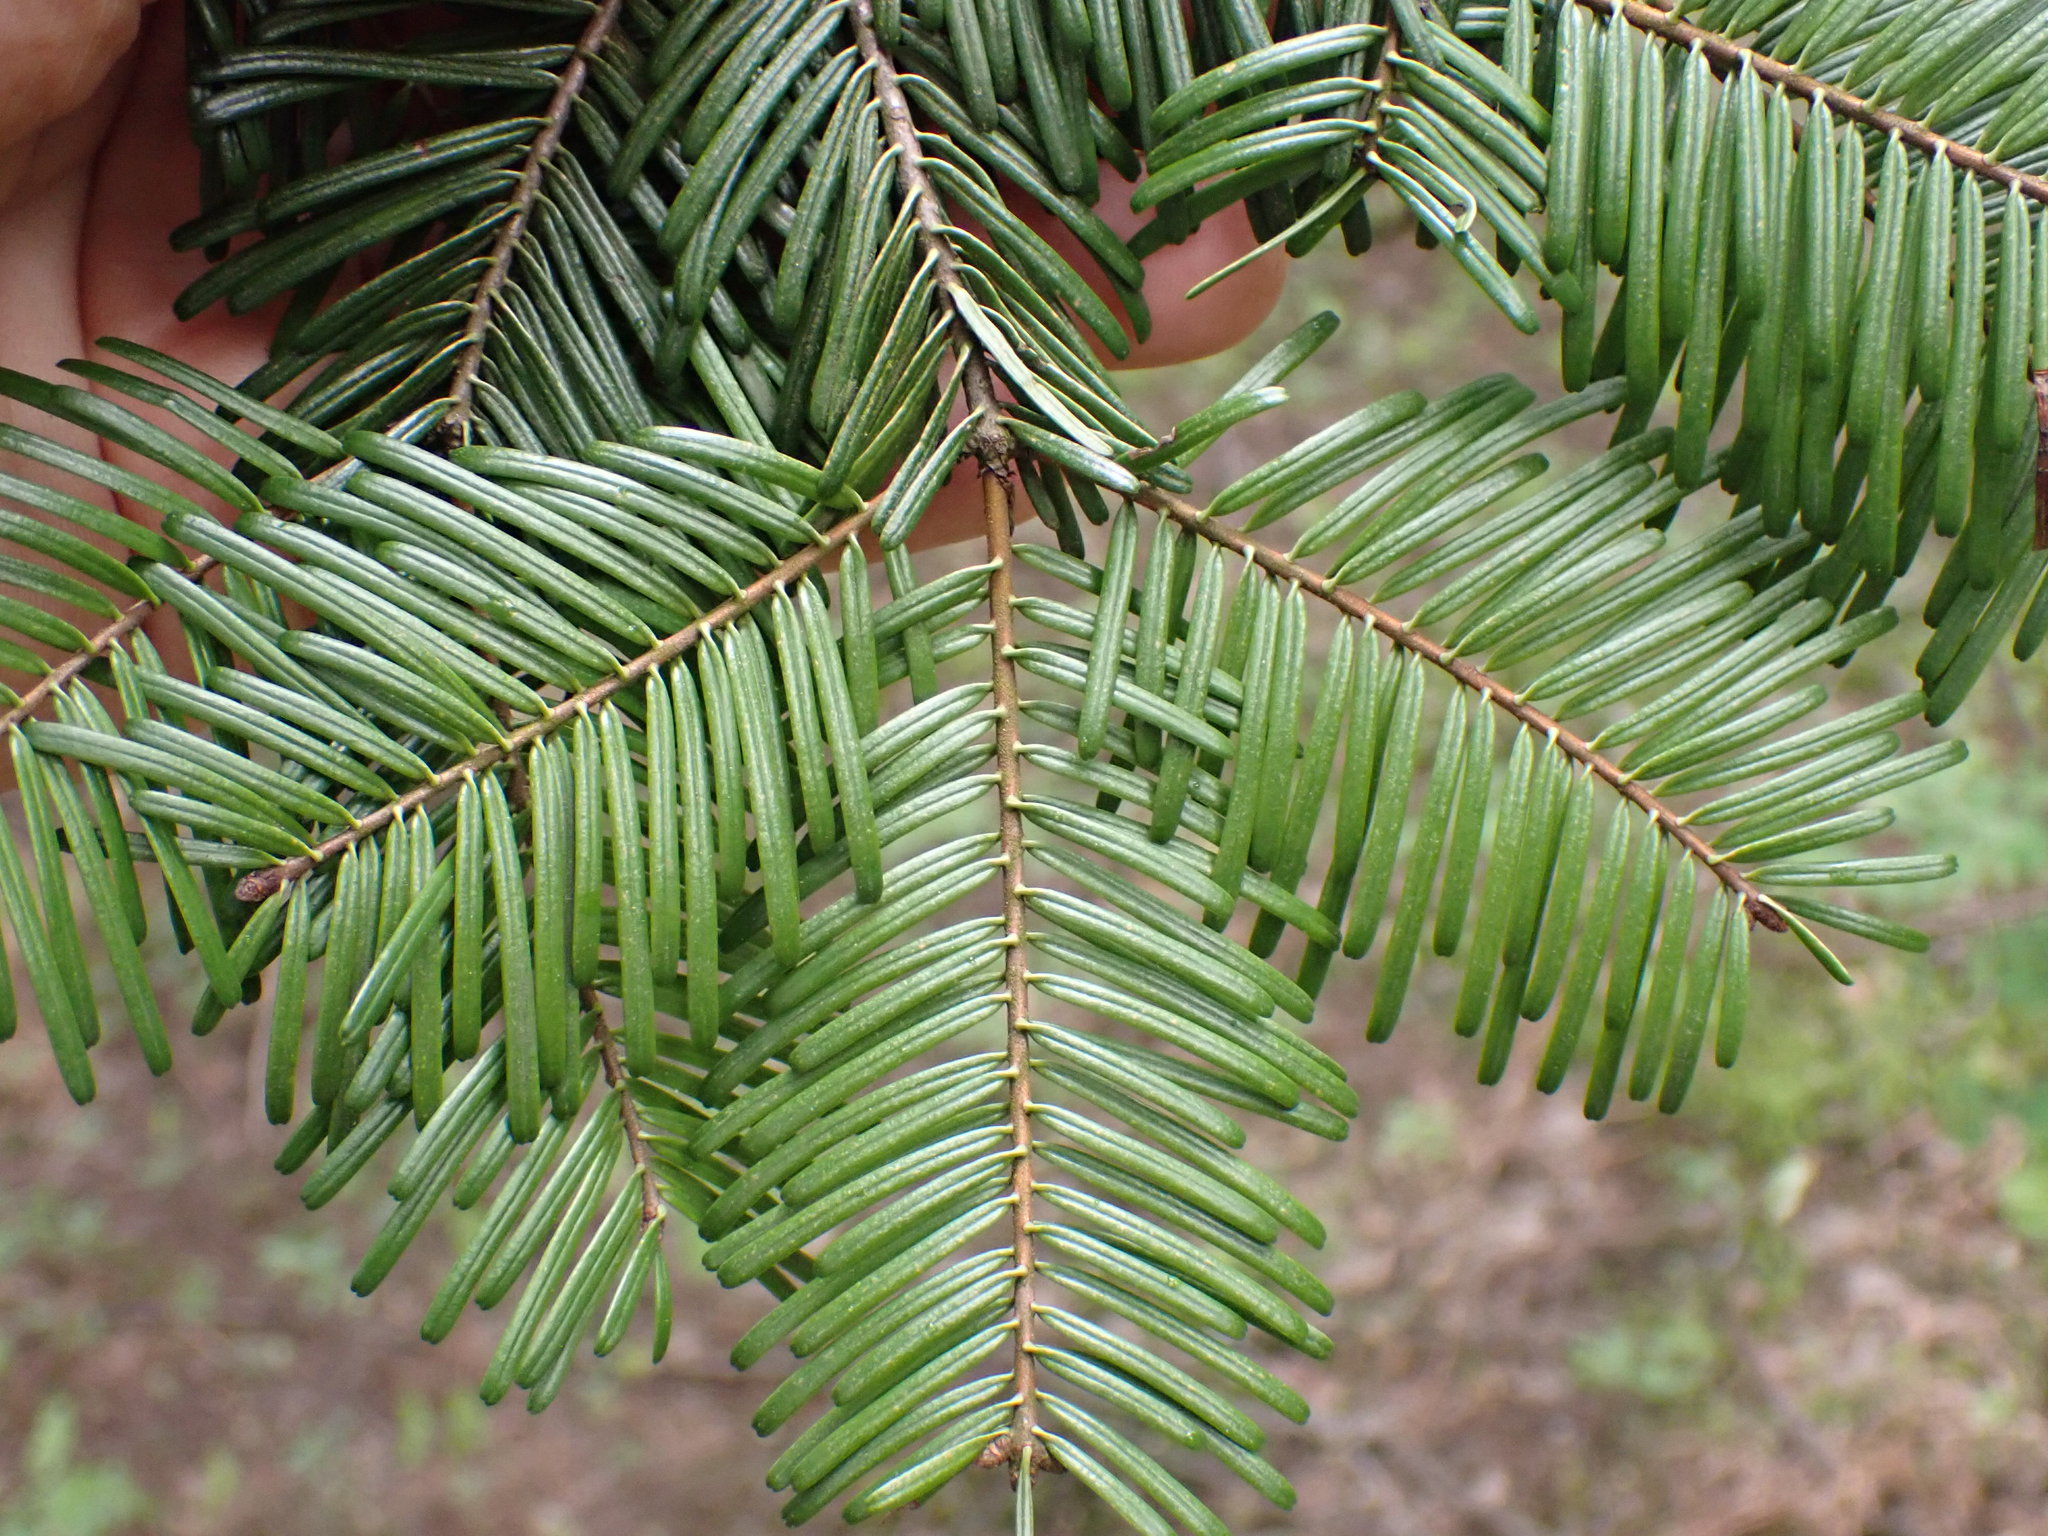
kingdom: Plantae
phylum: Tracheophyta
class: Pinopsida
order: Pinales
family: Pinaceae
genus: Abies
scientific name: Abies grandis
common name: Giant fir
